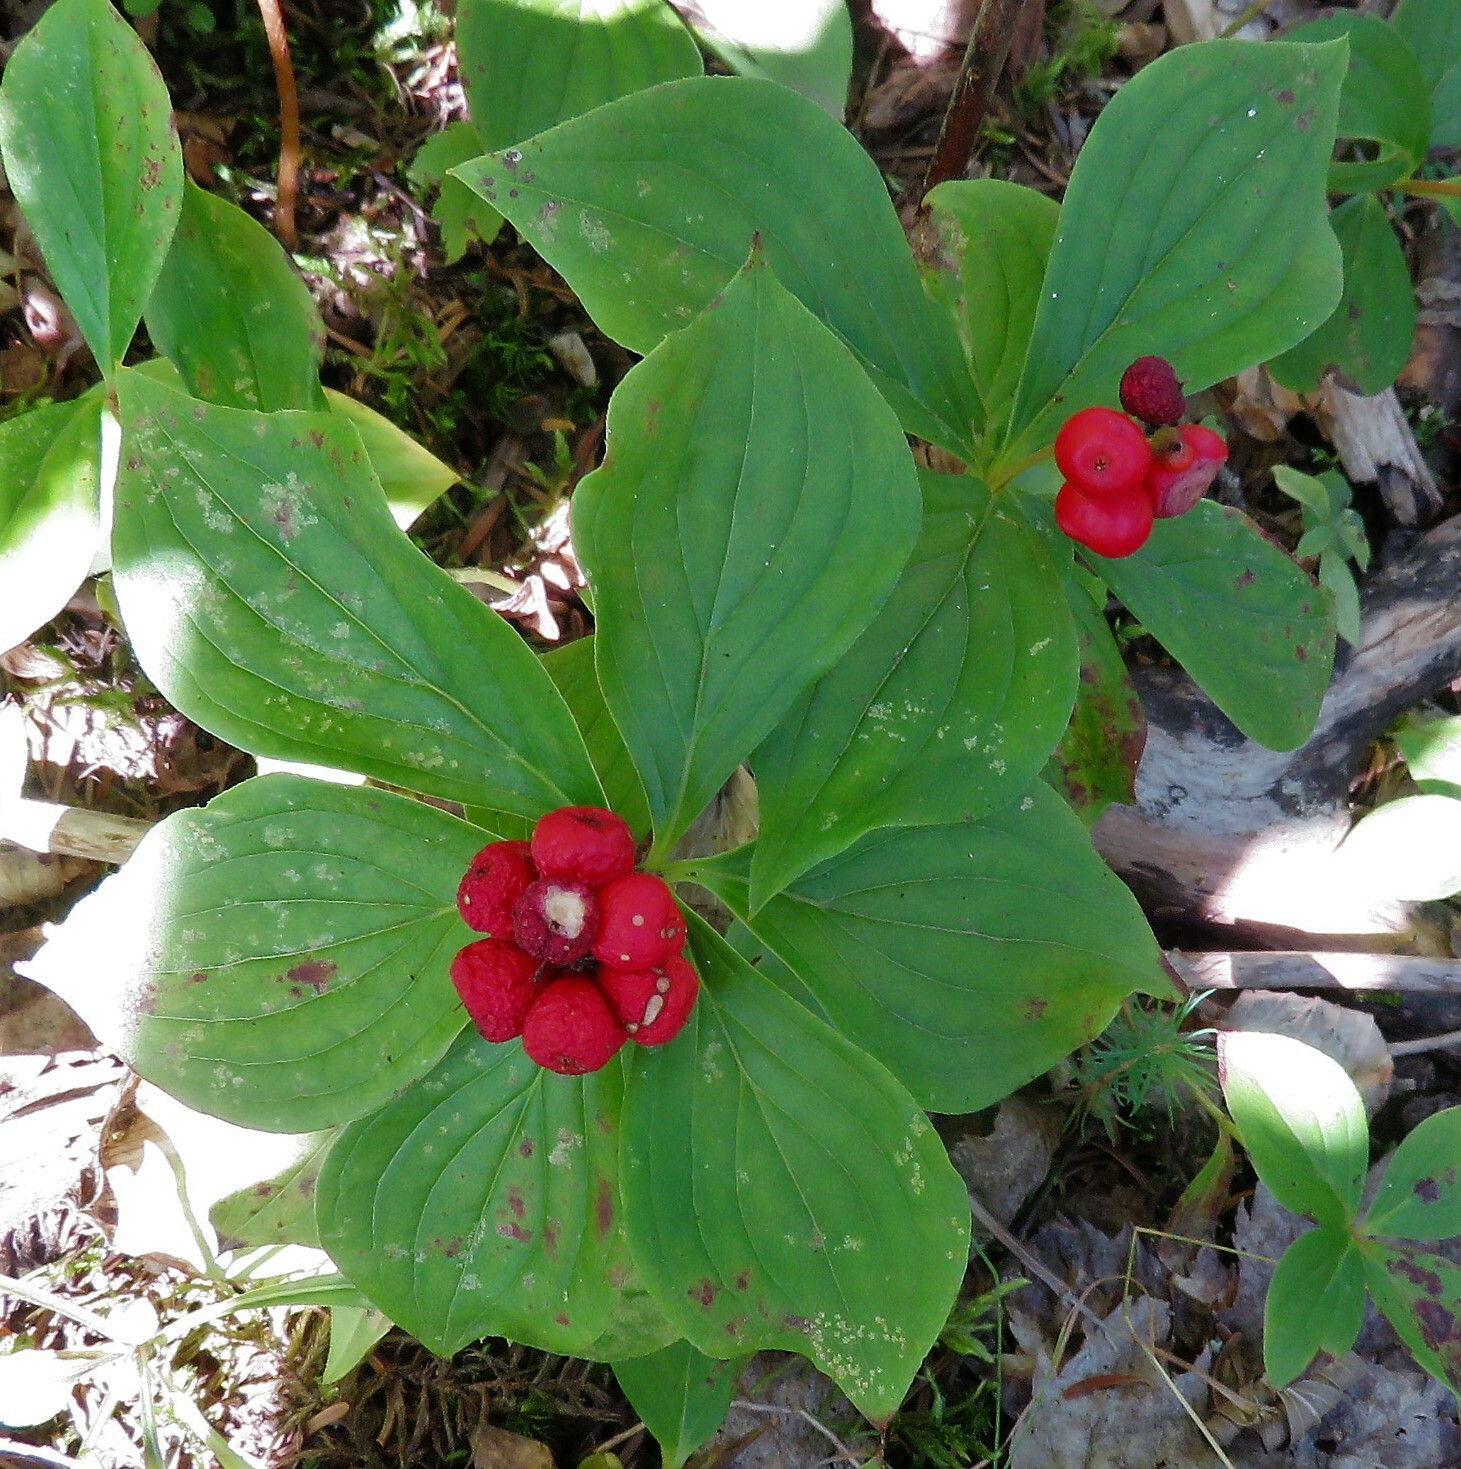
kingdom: Plantae
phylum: Tracheophyta
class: Magnoliopsida
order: Cornales
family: Cornaceae
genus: Cornus
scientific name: Cornus canadensis
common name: Creeping dogwood
